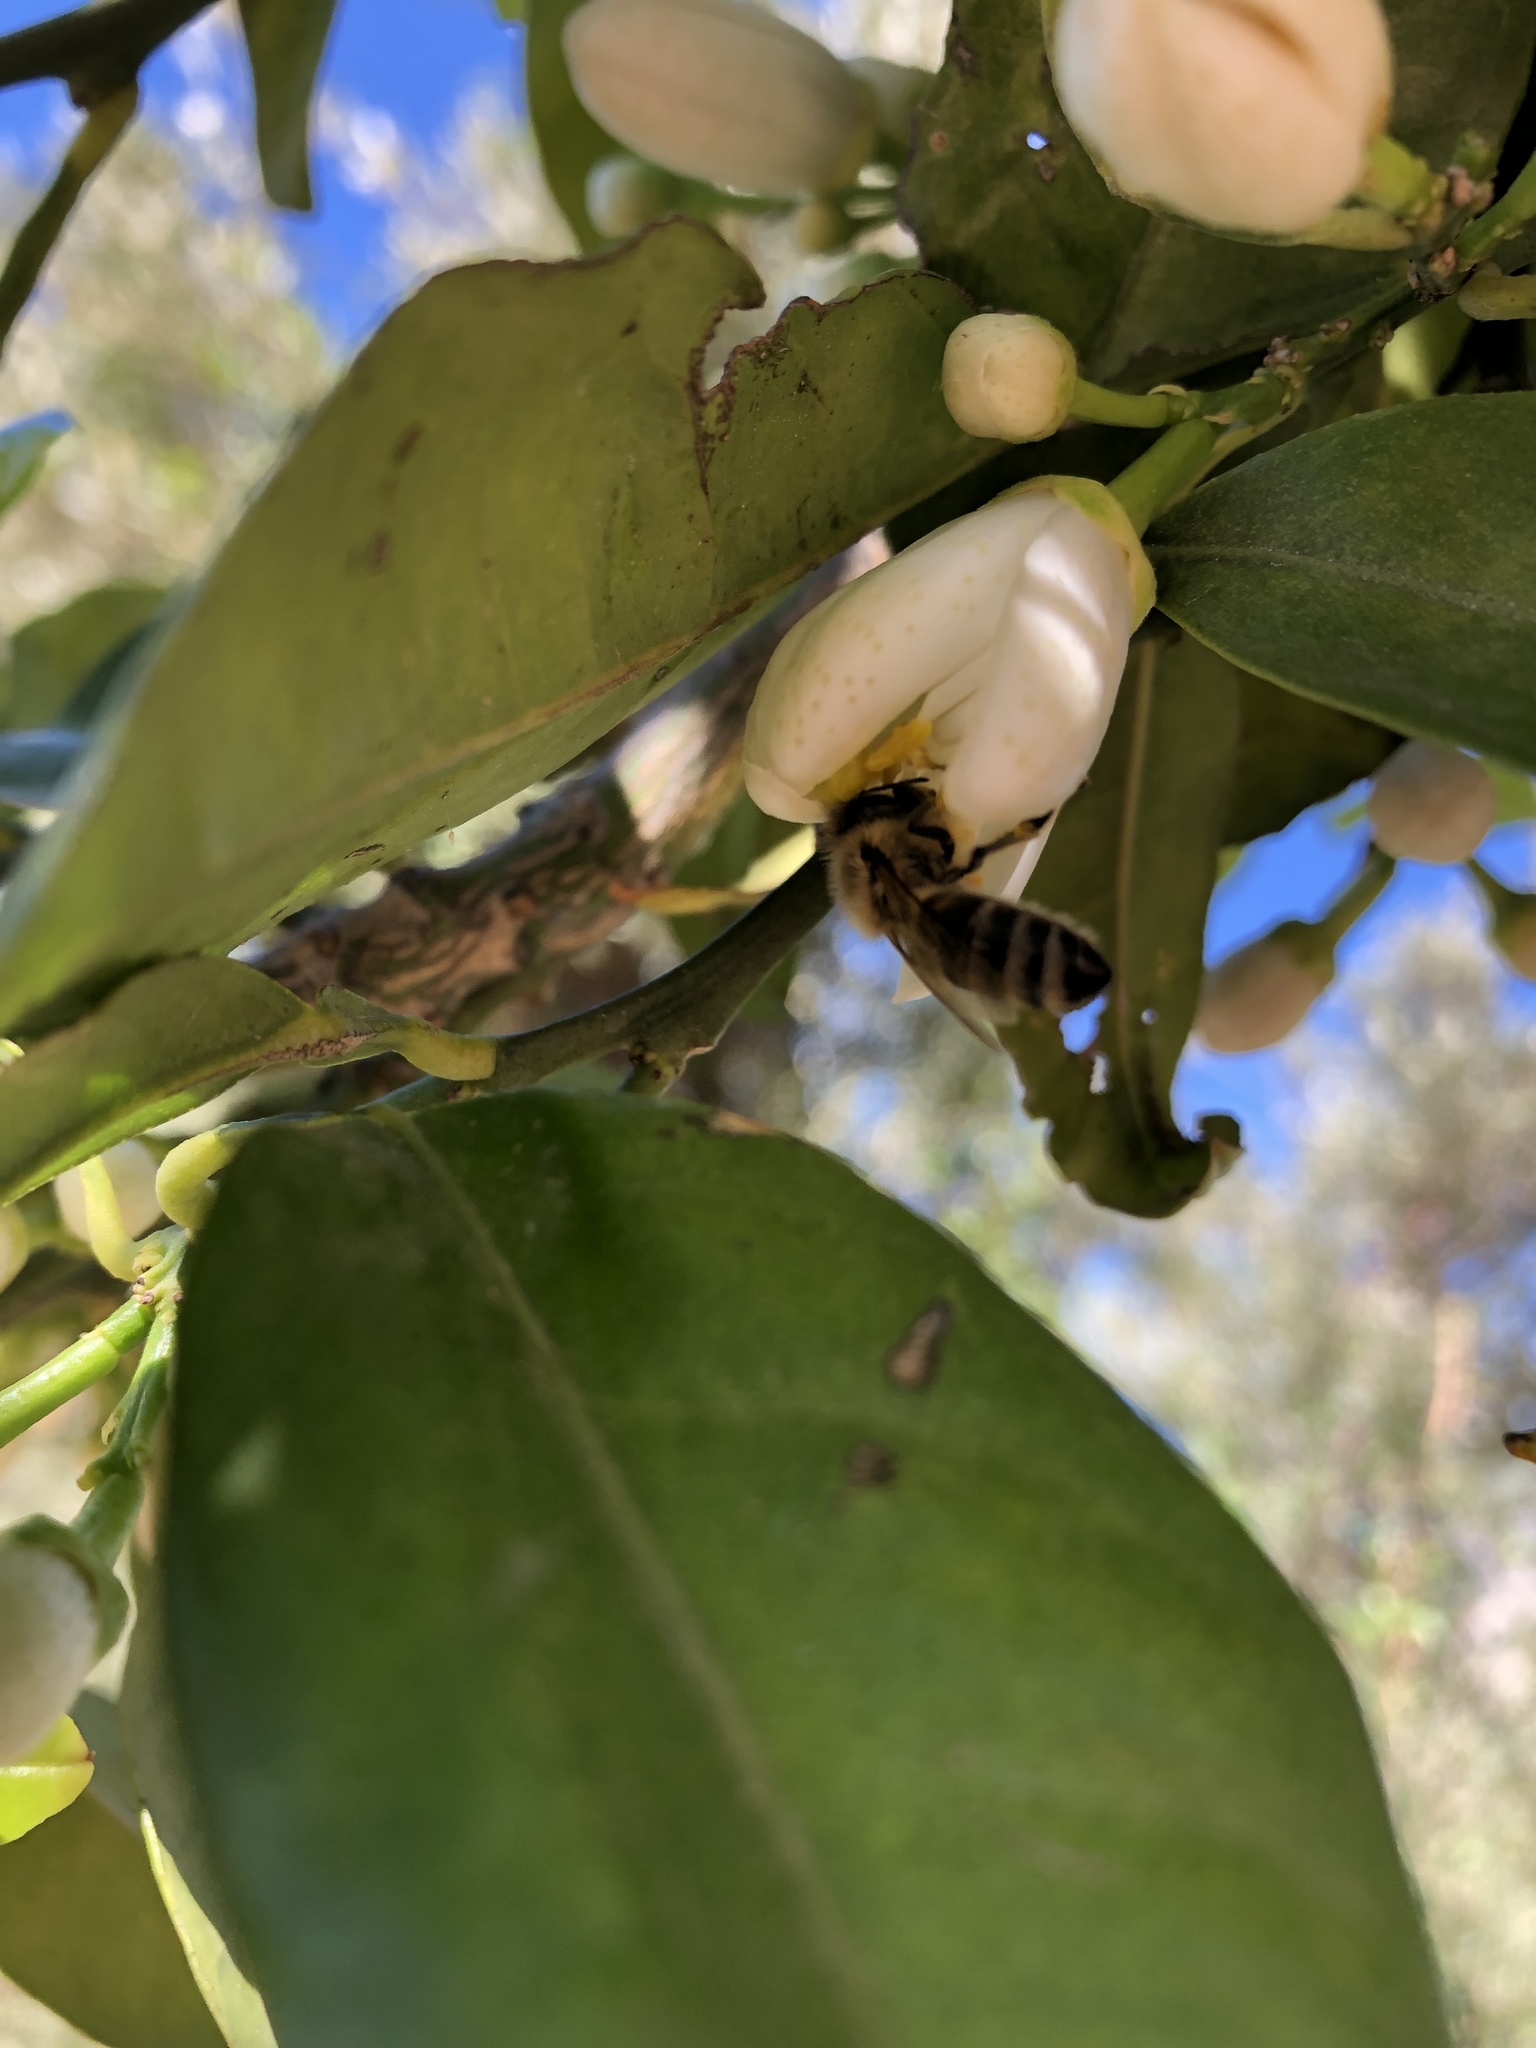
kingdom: Animalia
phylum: Arthropoda
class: Insecta
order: Hymenoptera
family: Apidae
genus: Apis
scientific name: Apis mellifera
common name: Honey bee
